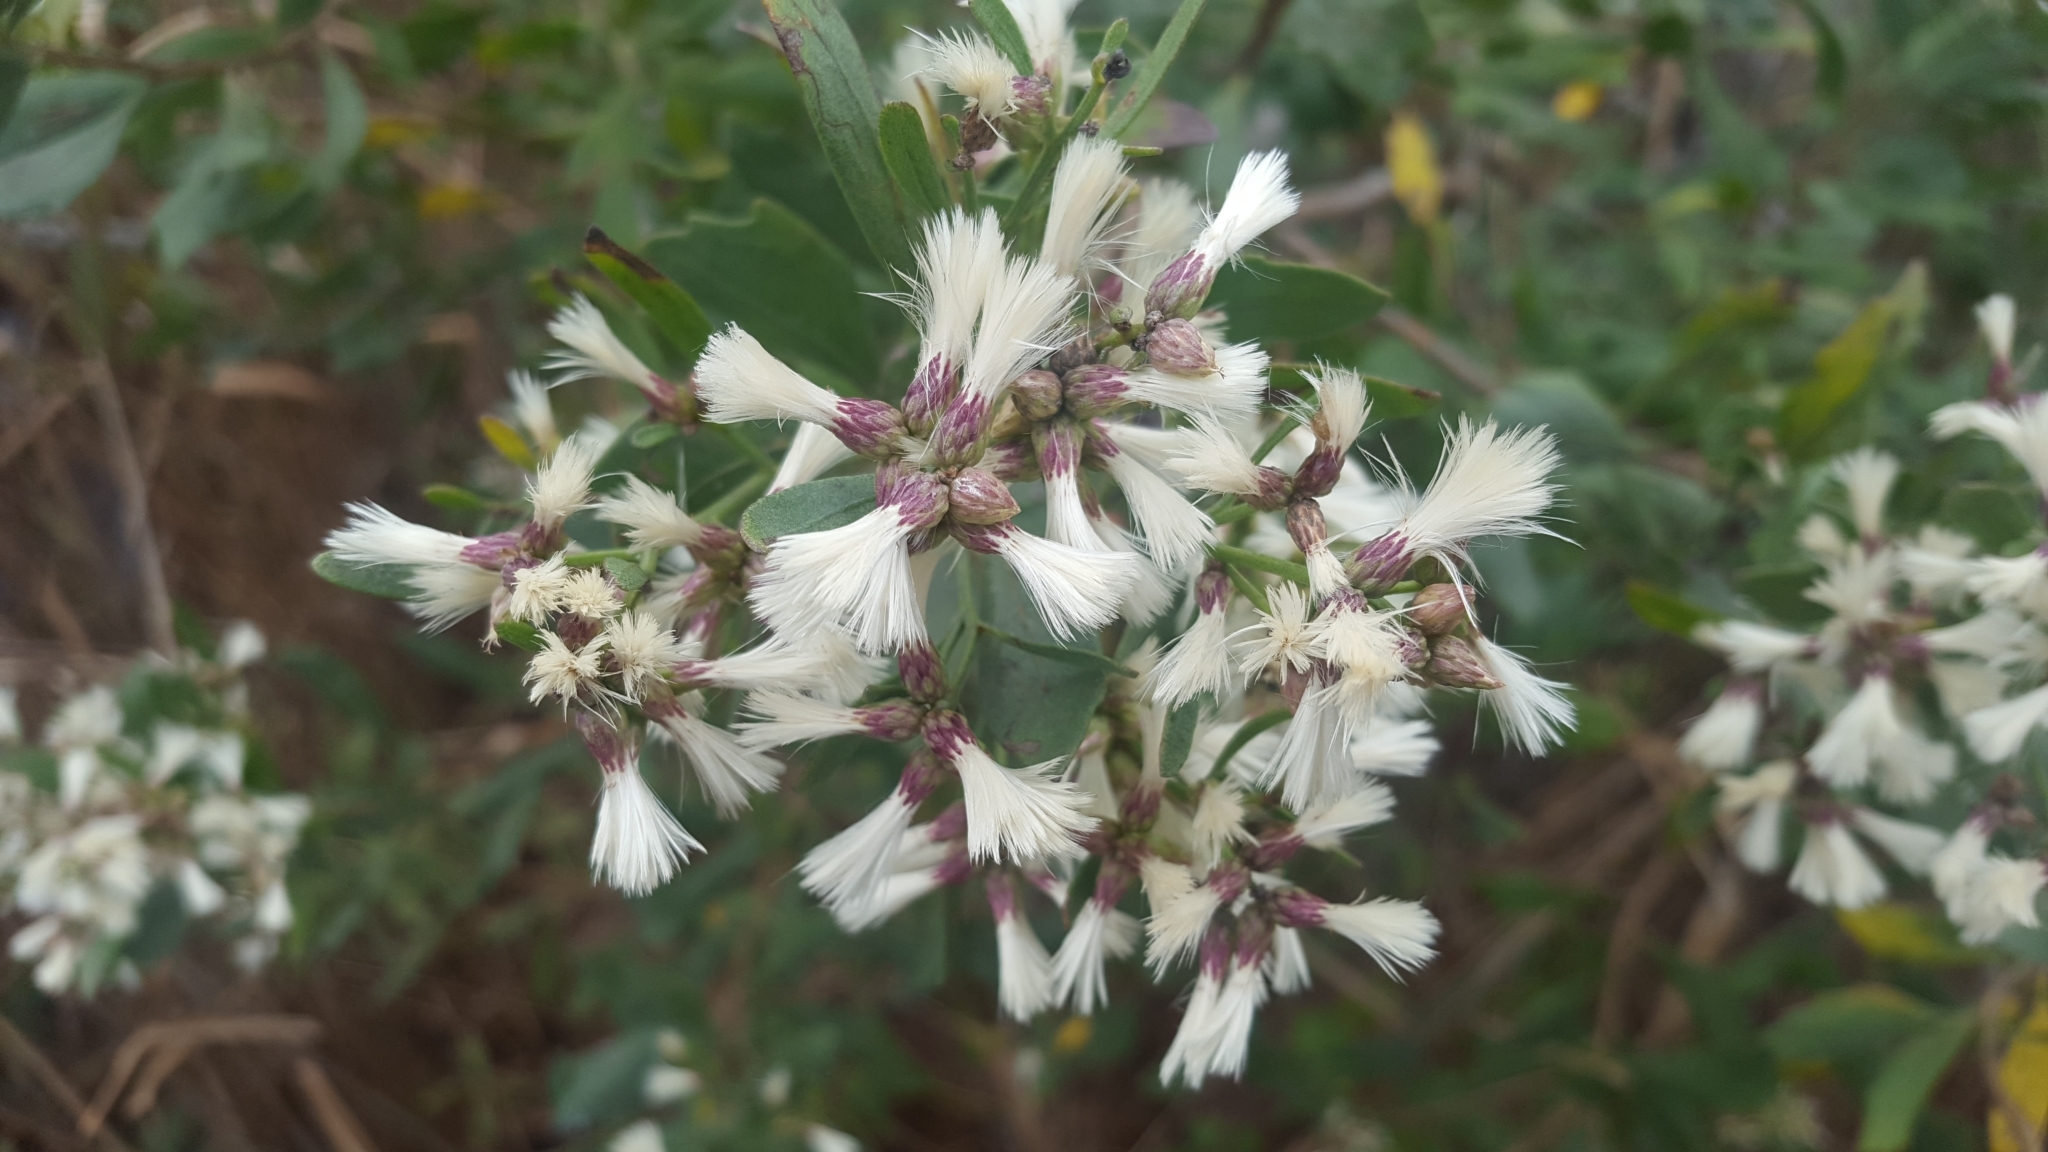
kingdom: Plantae
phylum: Tracheophyta
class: Magnoliopsida
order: Asterales
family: Asteraceae
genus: Baccharis
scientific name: Baccharis halimifolia
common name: Eastern baccharis
